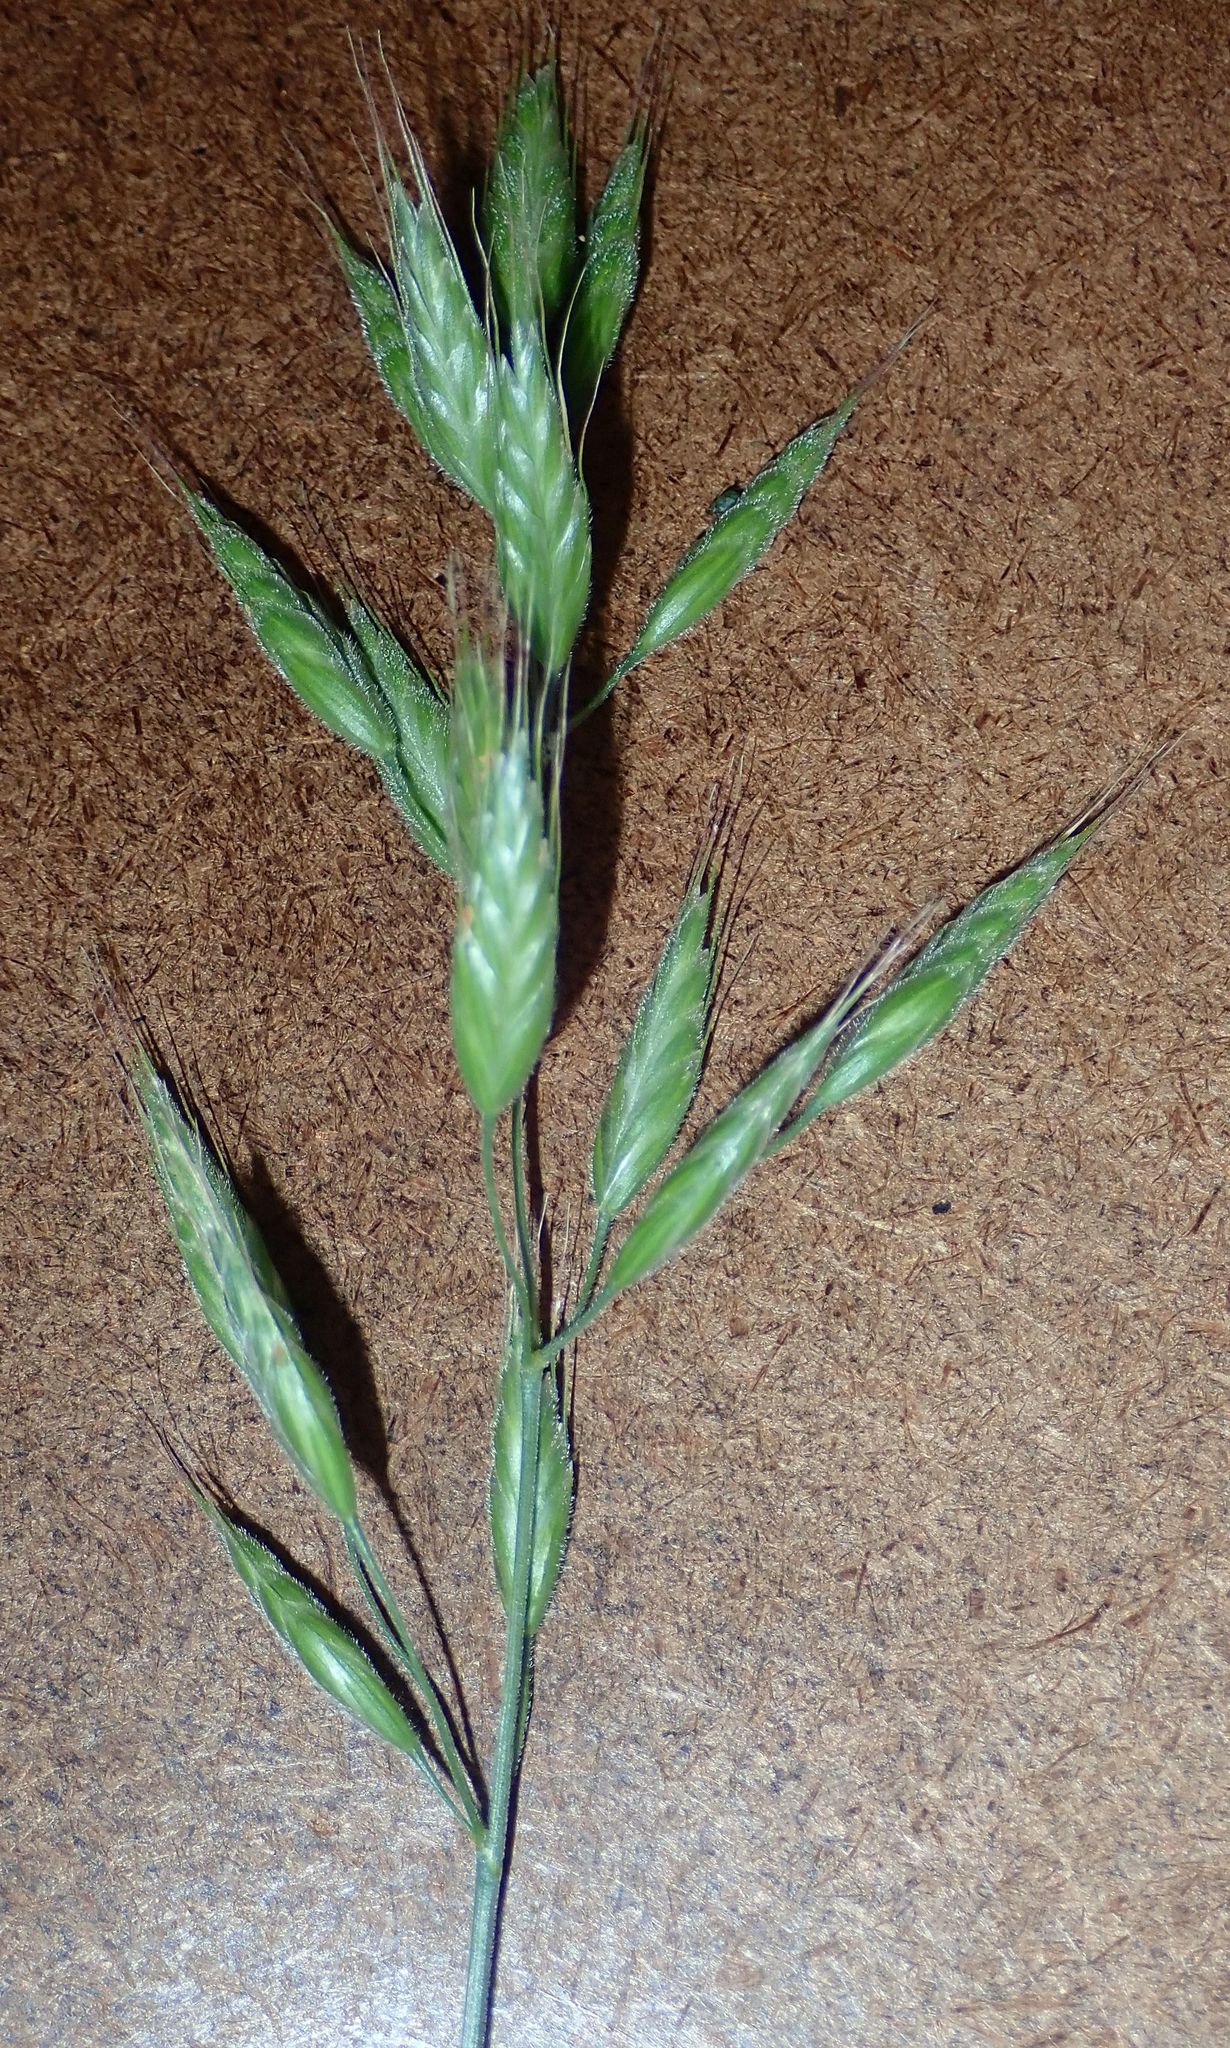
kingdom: Plantae
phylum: Tracheophyta
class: Liliopsida
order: Poales
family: Poaceae
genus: Bromus
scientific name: Bromus hordeaceus
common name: Soft brome
